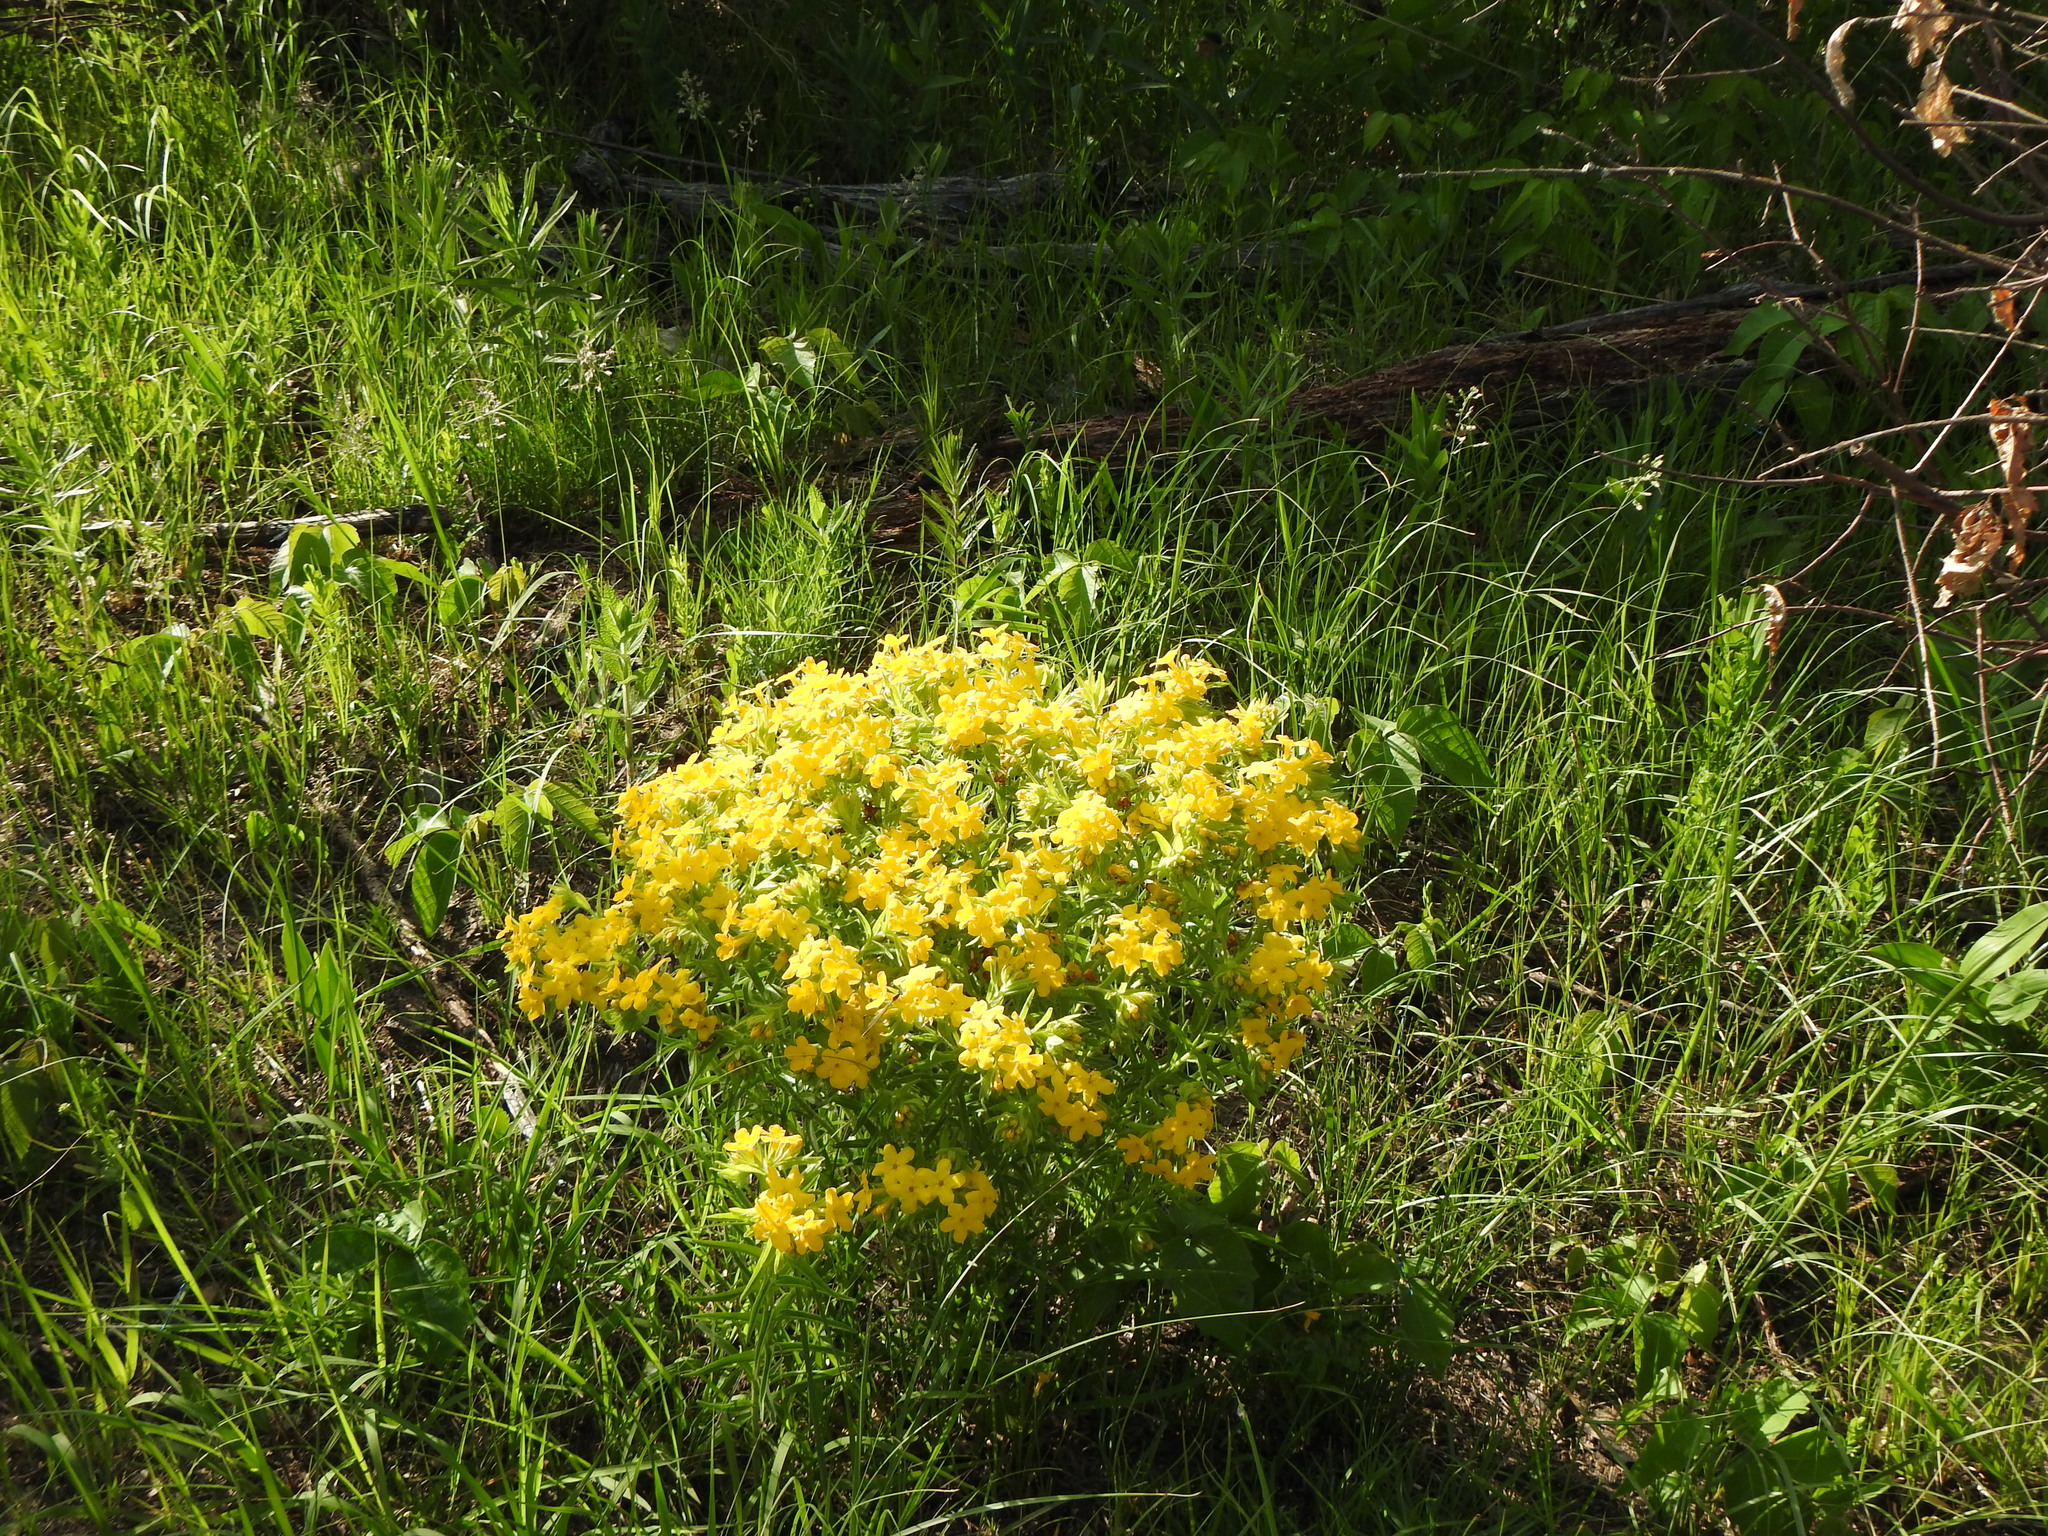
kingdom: Plantae
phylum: Tracheophyta
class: Magnoliopsida
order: Boraginales
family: Boraginaceae
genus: Lithospermum
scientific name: Lithospermum caroliniense
